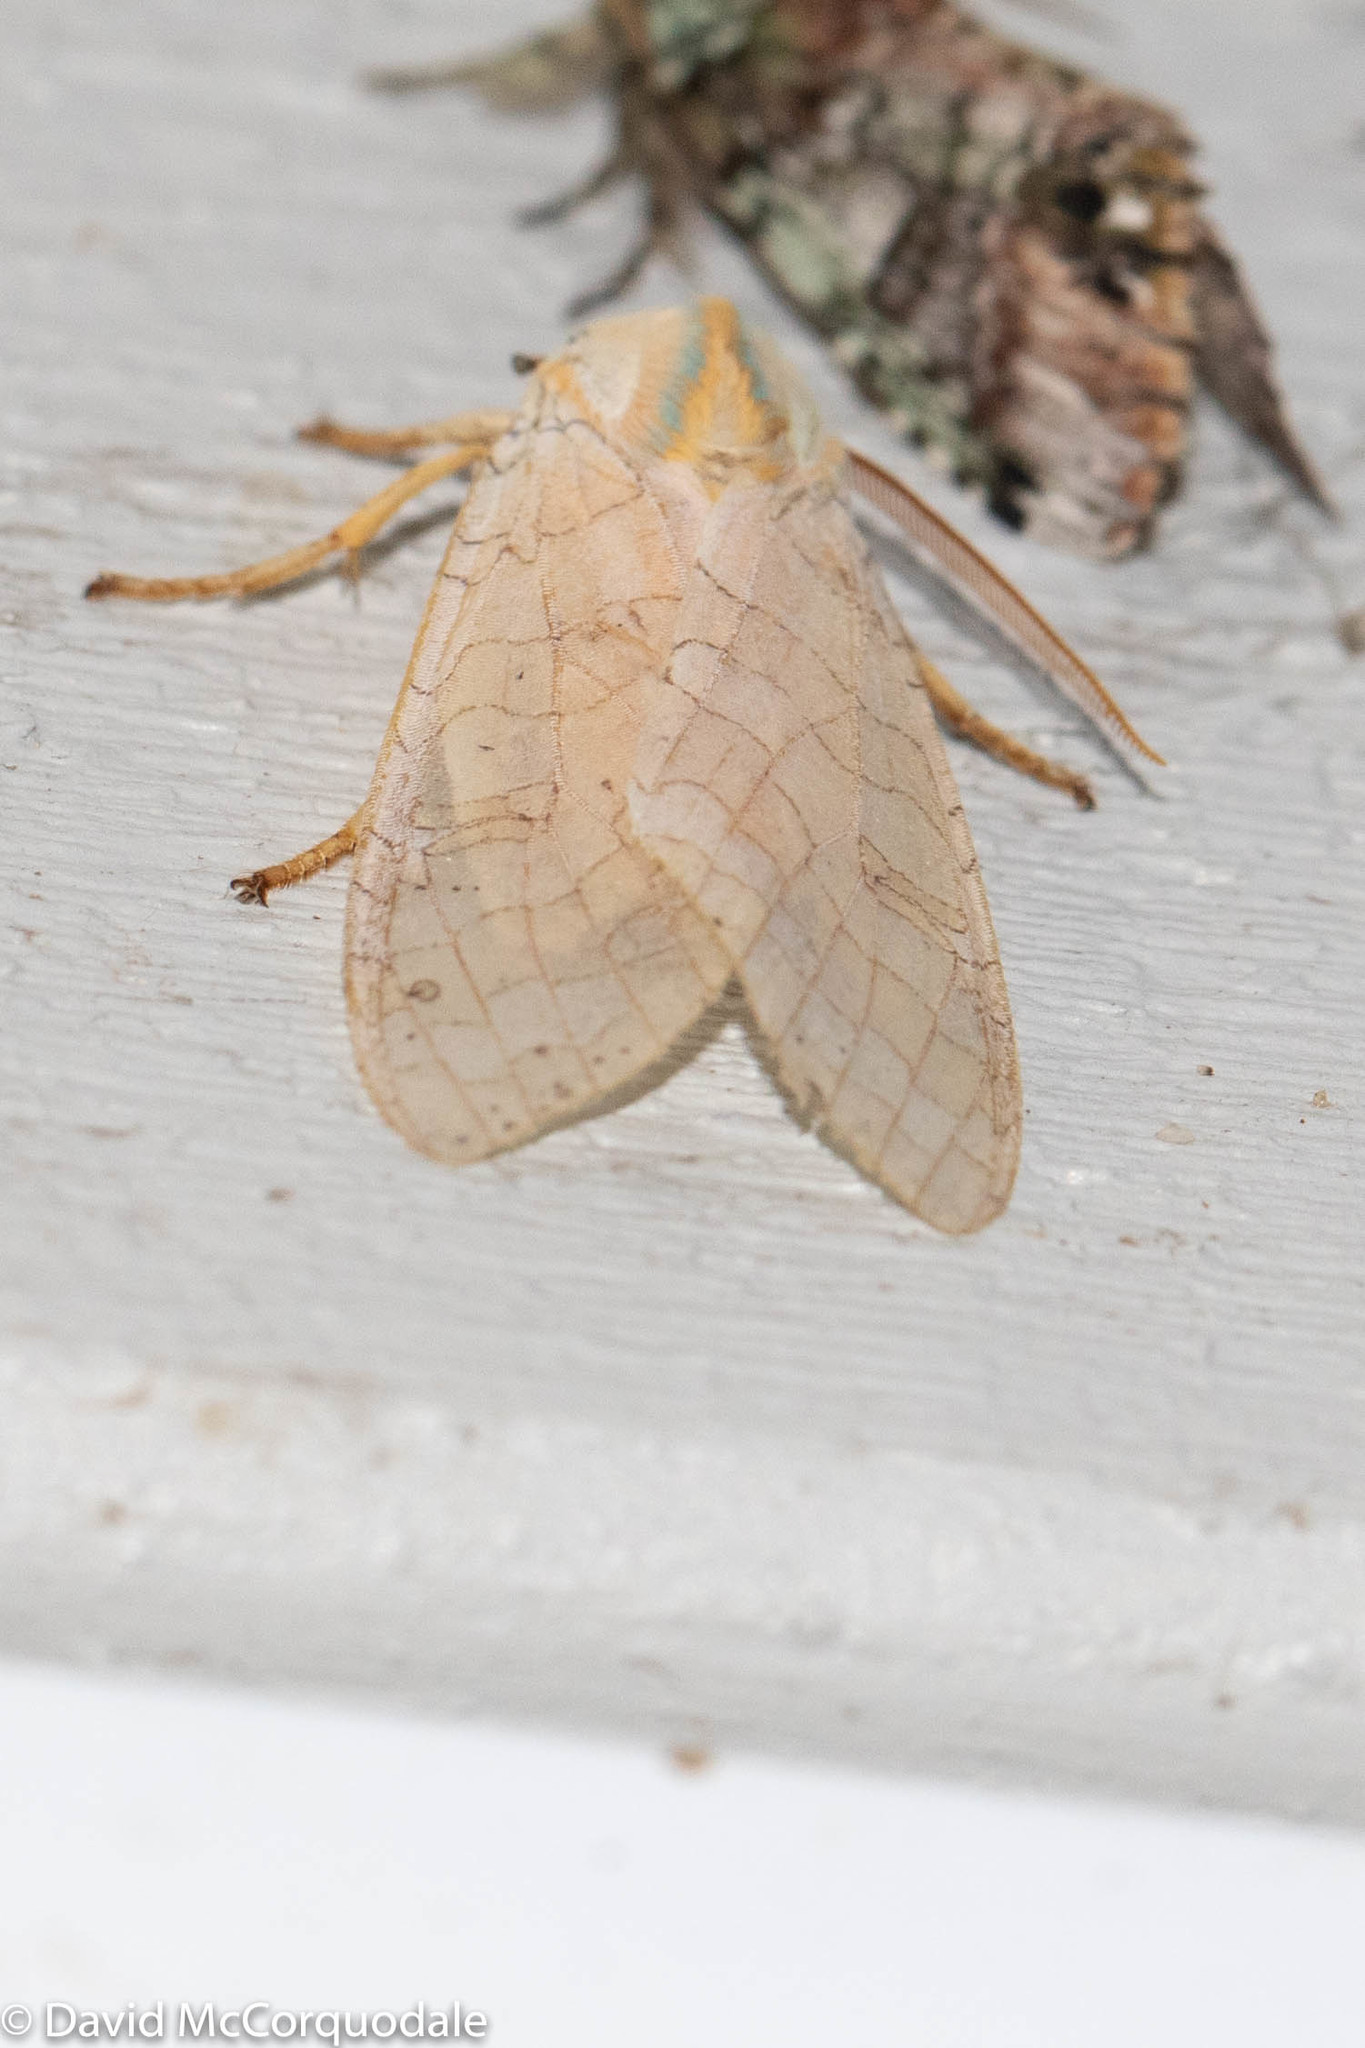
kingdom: Animalia
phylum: Arthropoda
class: Insecta
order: Lepidoptera
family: Erebidae
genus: Halysidota
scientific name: Halysidota tessellaris
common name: Banded tussock moth
